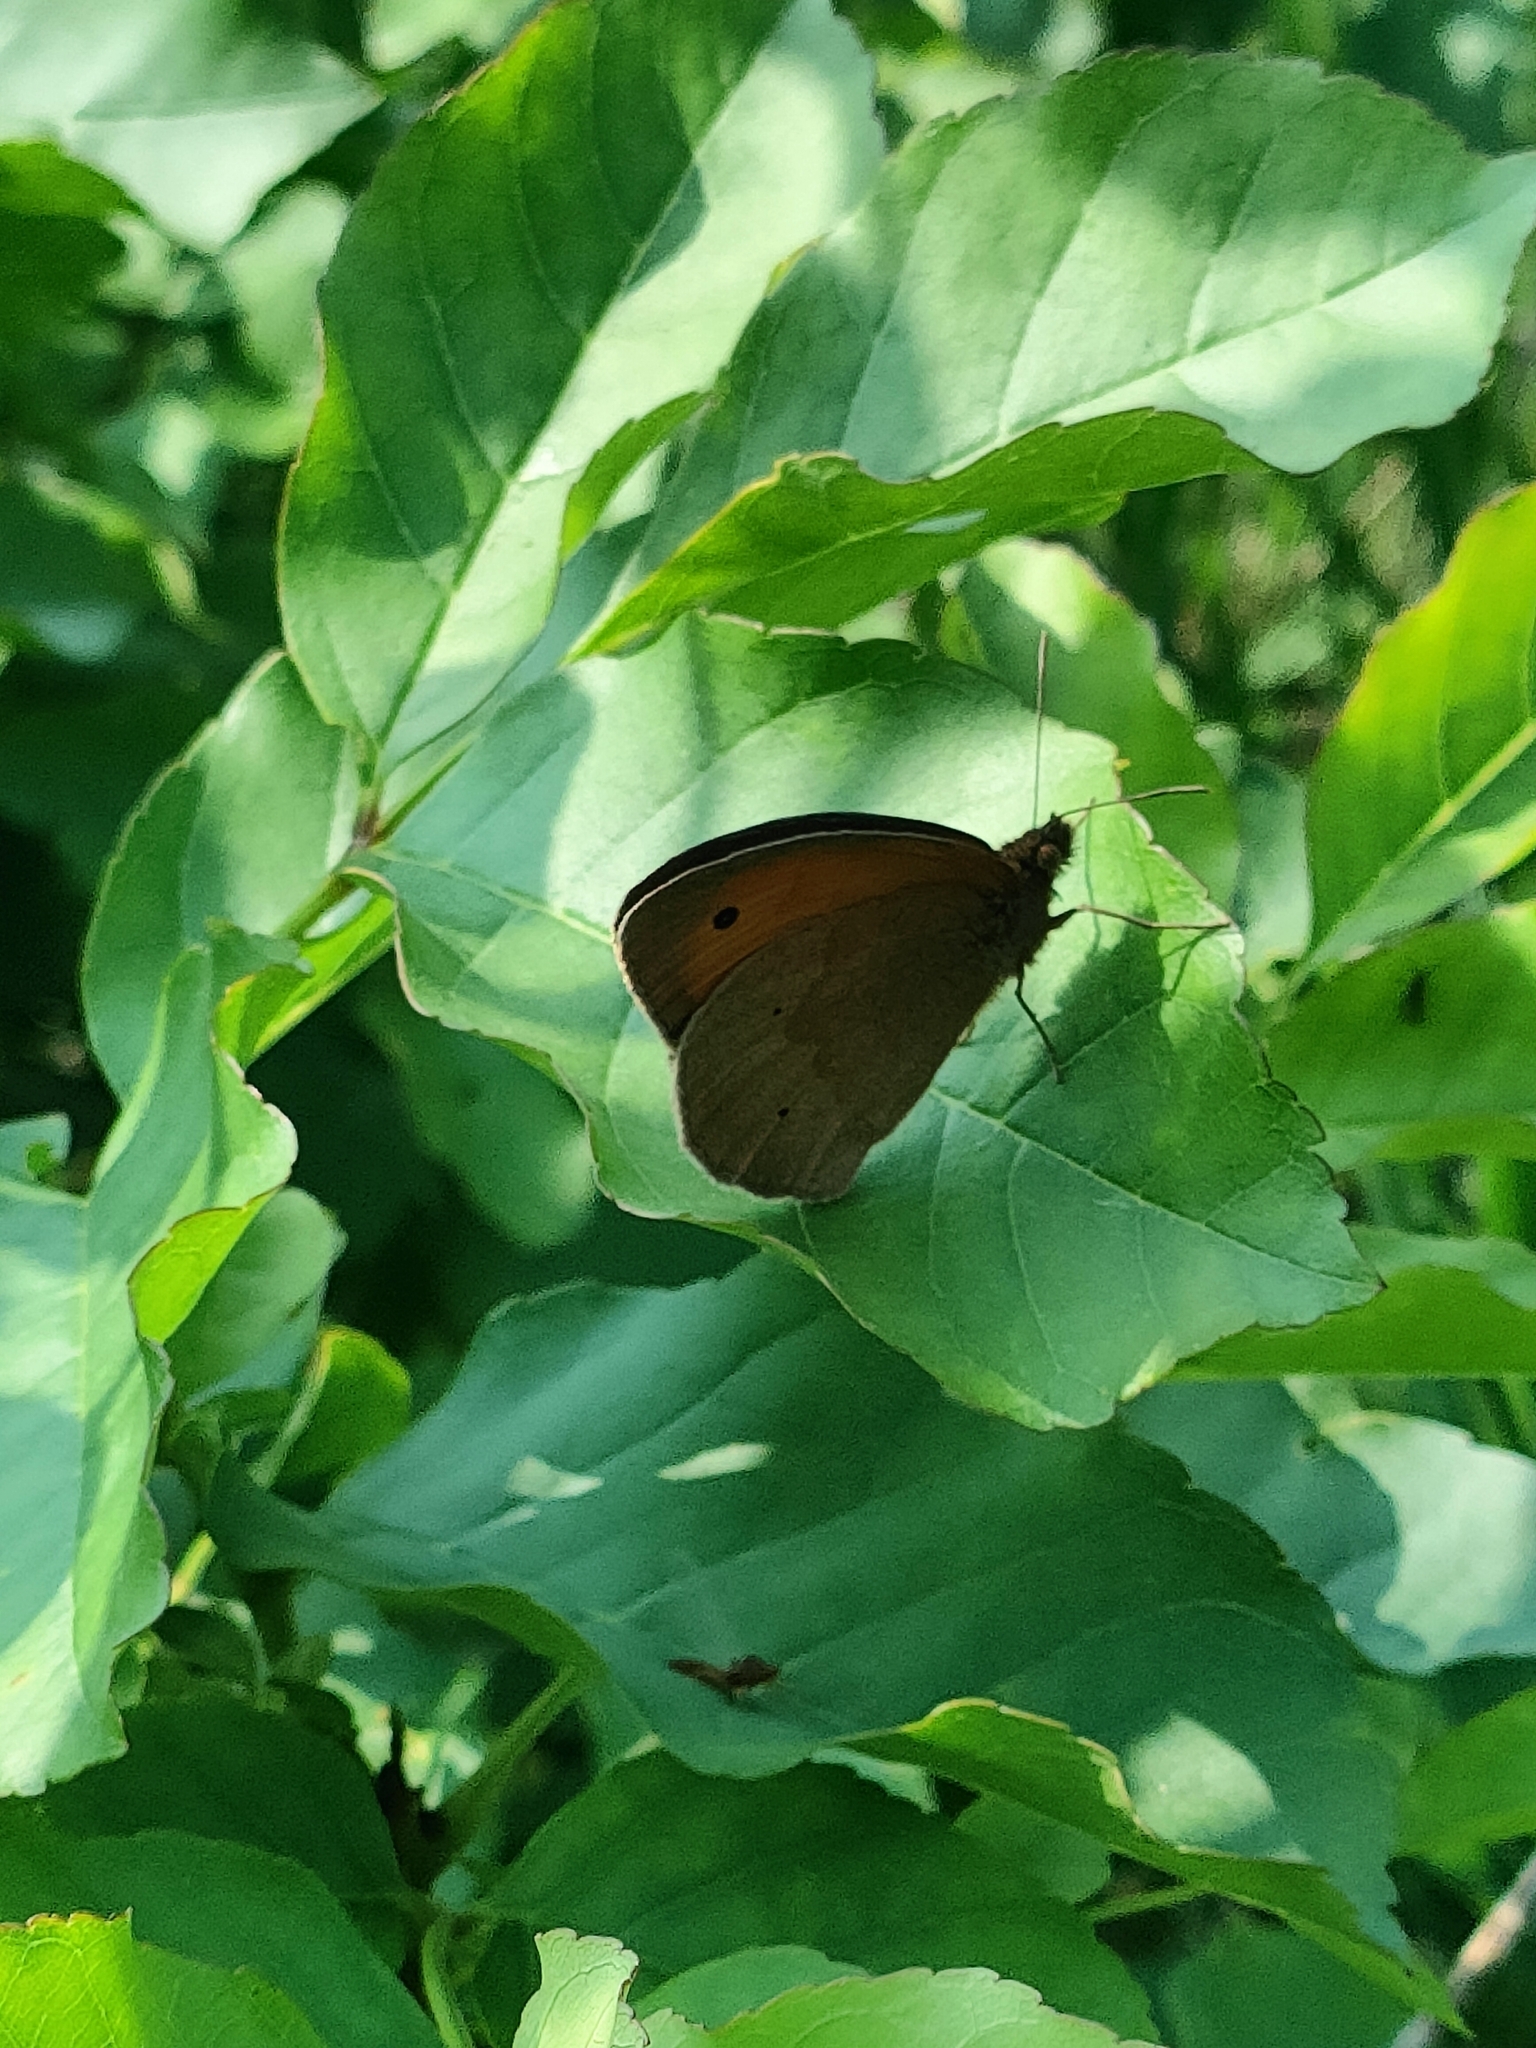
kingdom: Animalia
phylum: Arthropoda
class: Insecta
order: Lepidoptera
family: Nymphalidae
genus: Maniola
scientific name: Maniola jurtina
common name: Meadow brown
